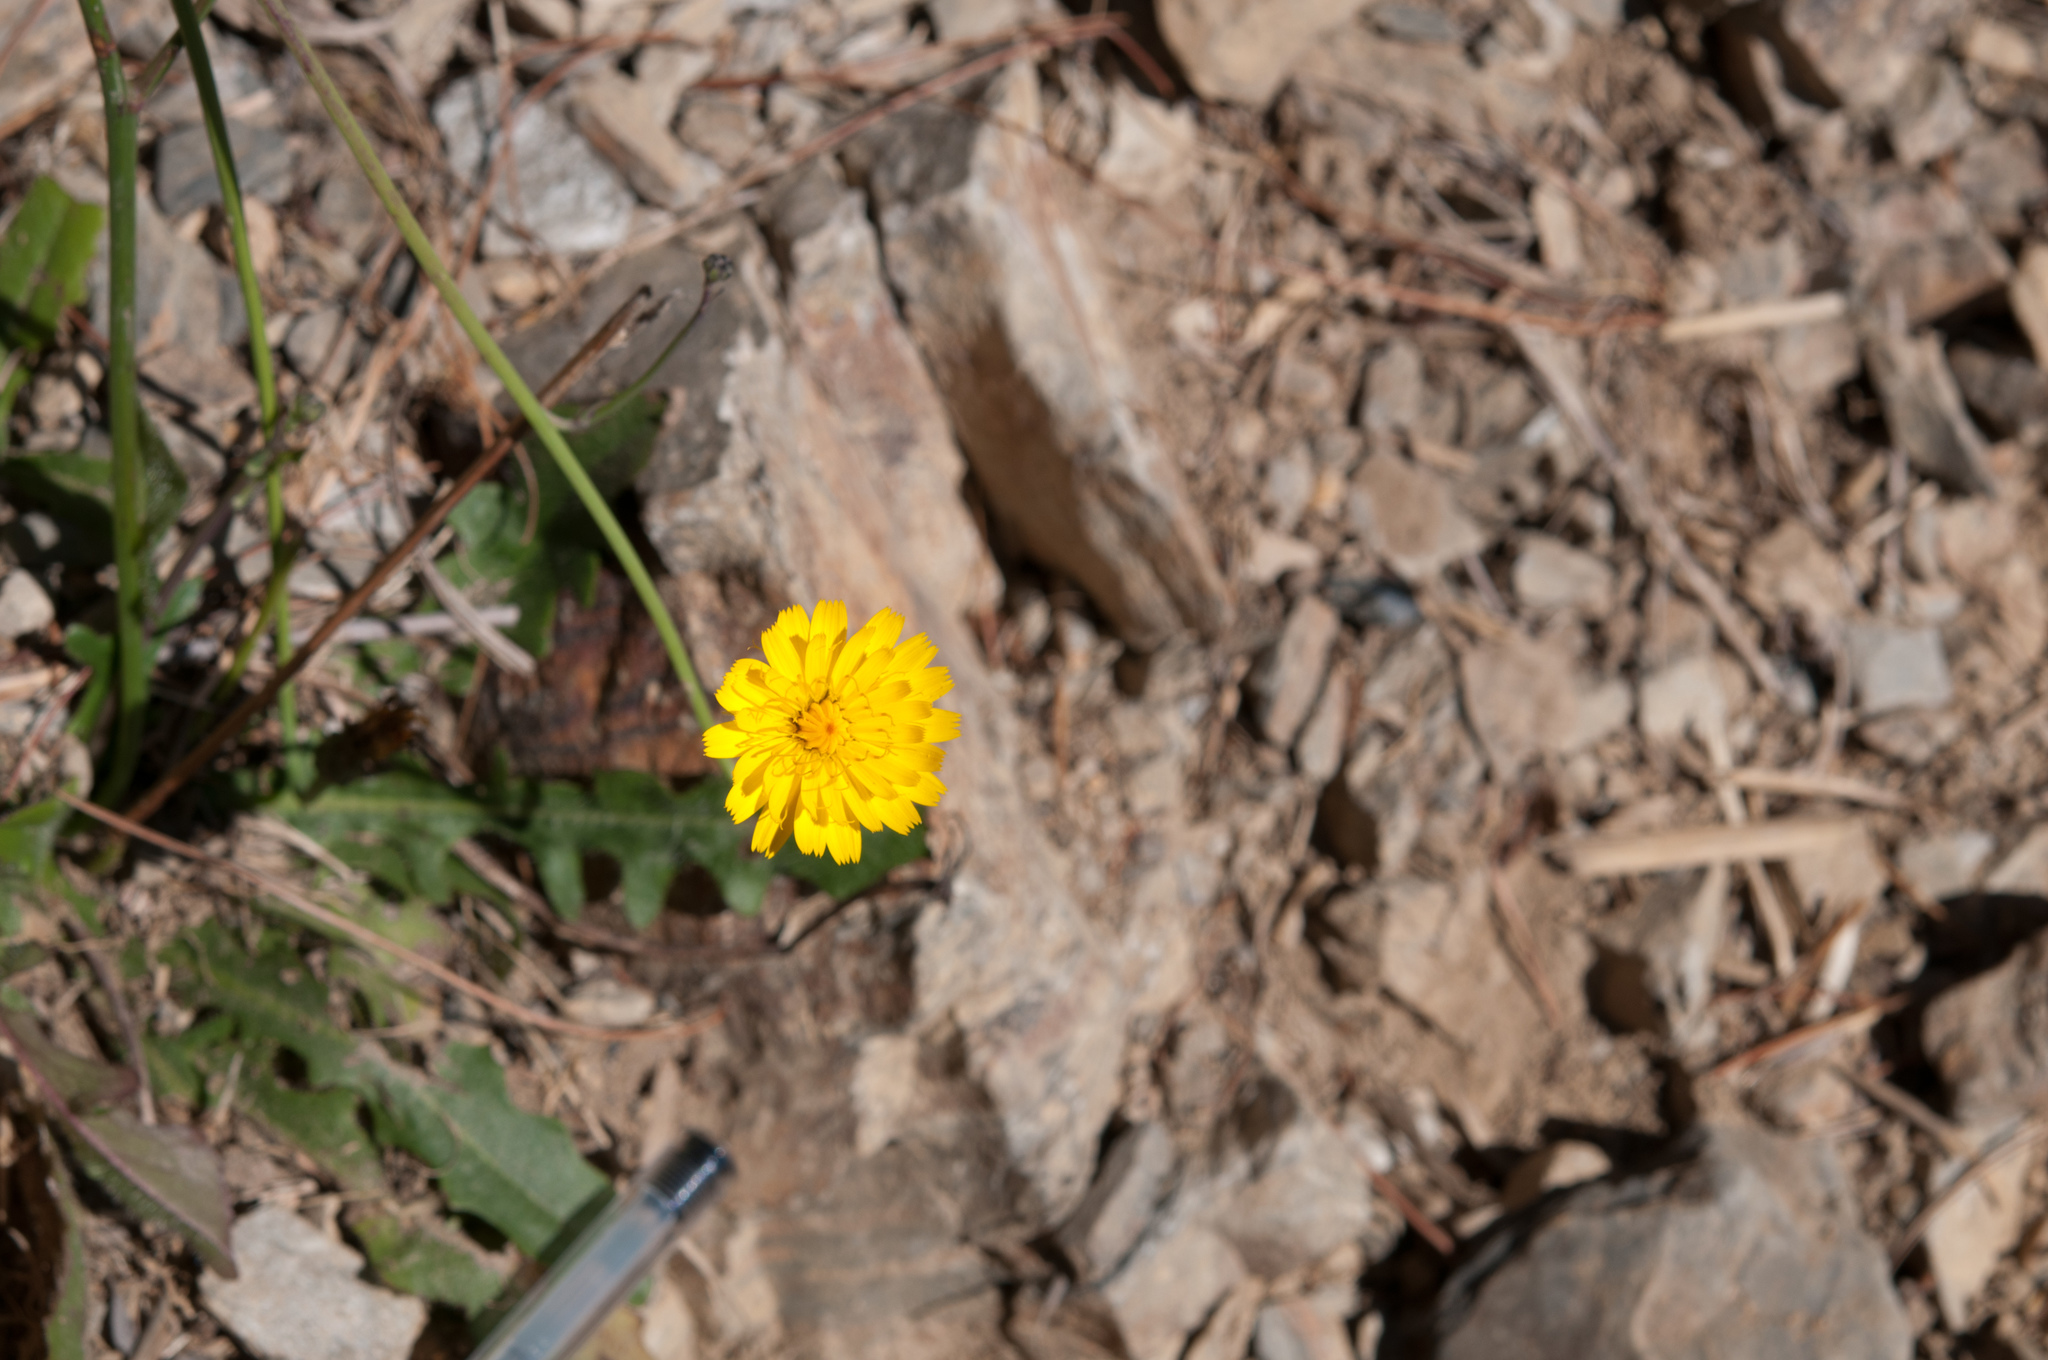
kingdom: Plantae
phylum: Tracheophyta
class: Magnoliopsida
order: Asterales
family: Asteraceae
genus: Hypochaeris
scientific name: Hypochaeris radicata
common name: Flatweed
